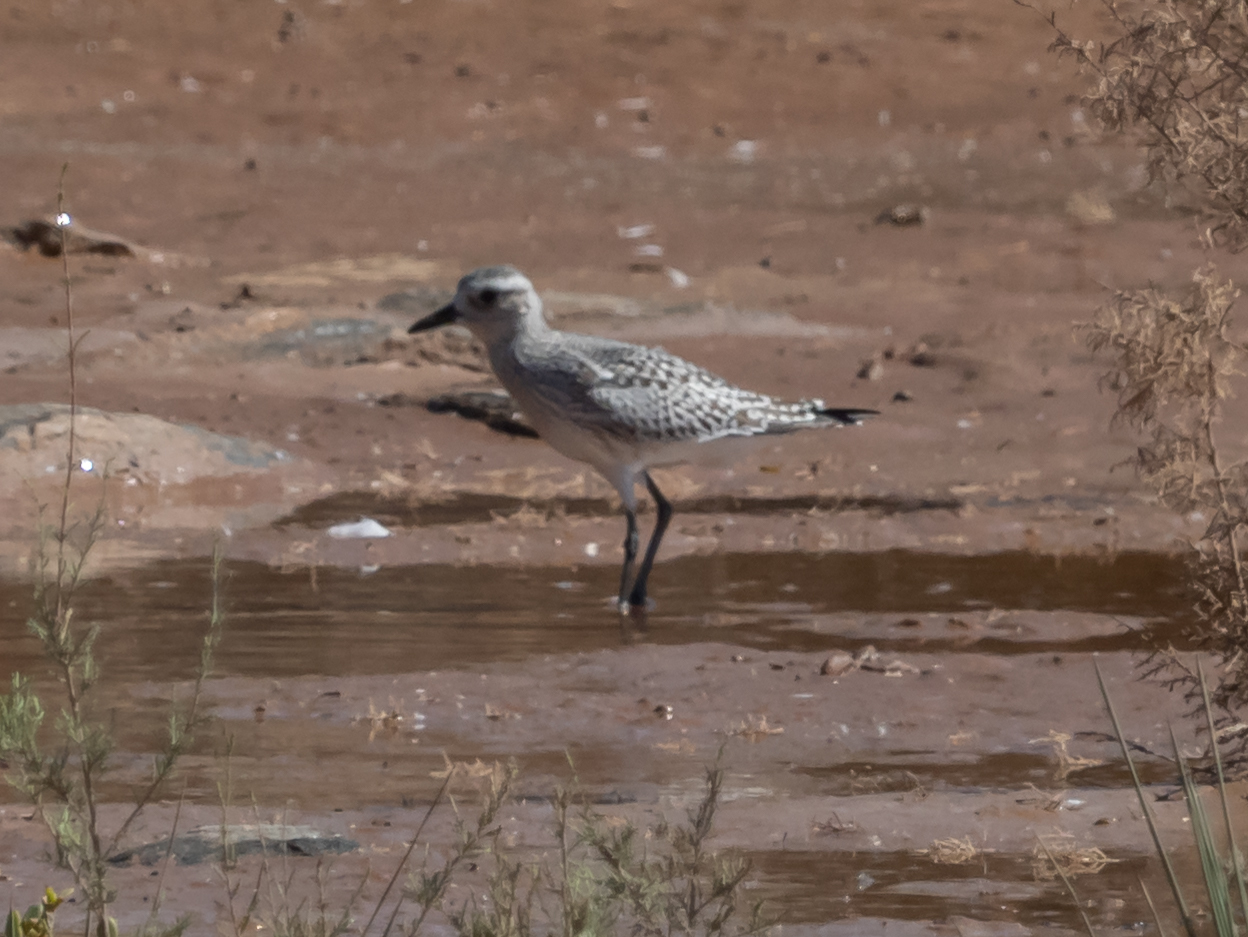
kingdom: Animalia
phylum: Chordata
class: Aves
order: Charadriiformes
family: Charadriidae
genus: Pluvialis
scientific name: Pluvialis squatarola
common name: Grey plover
